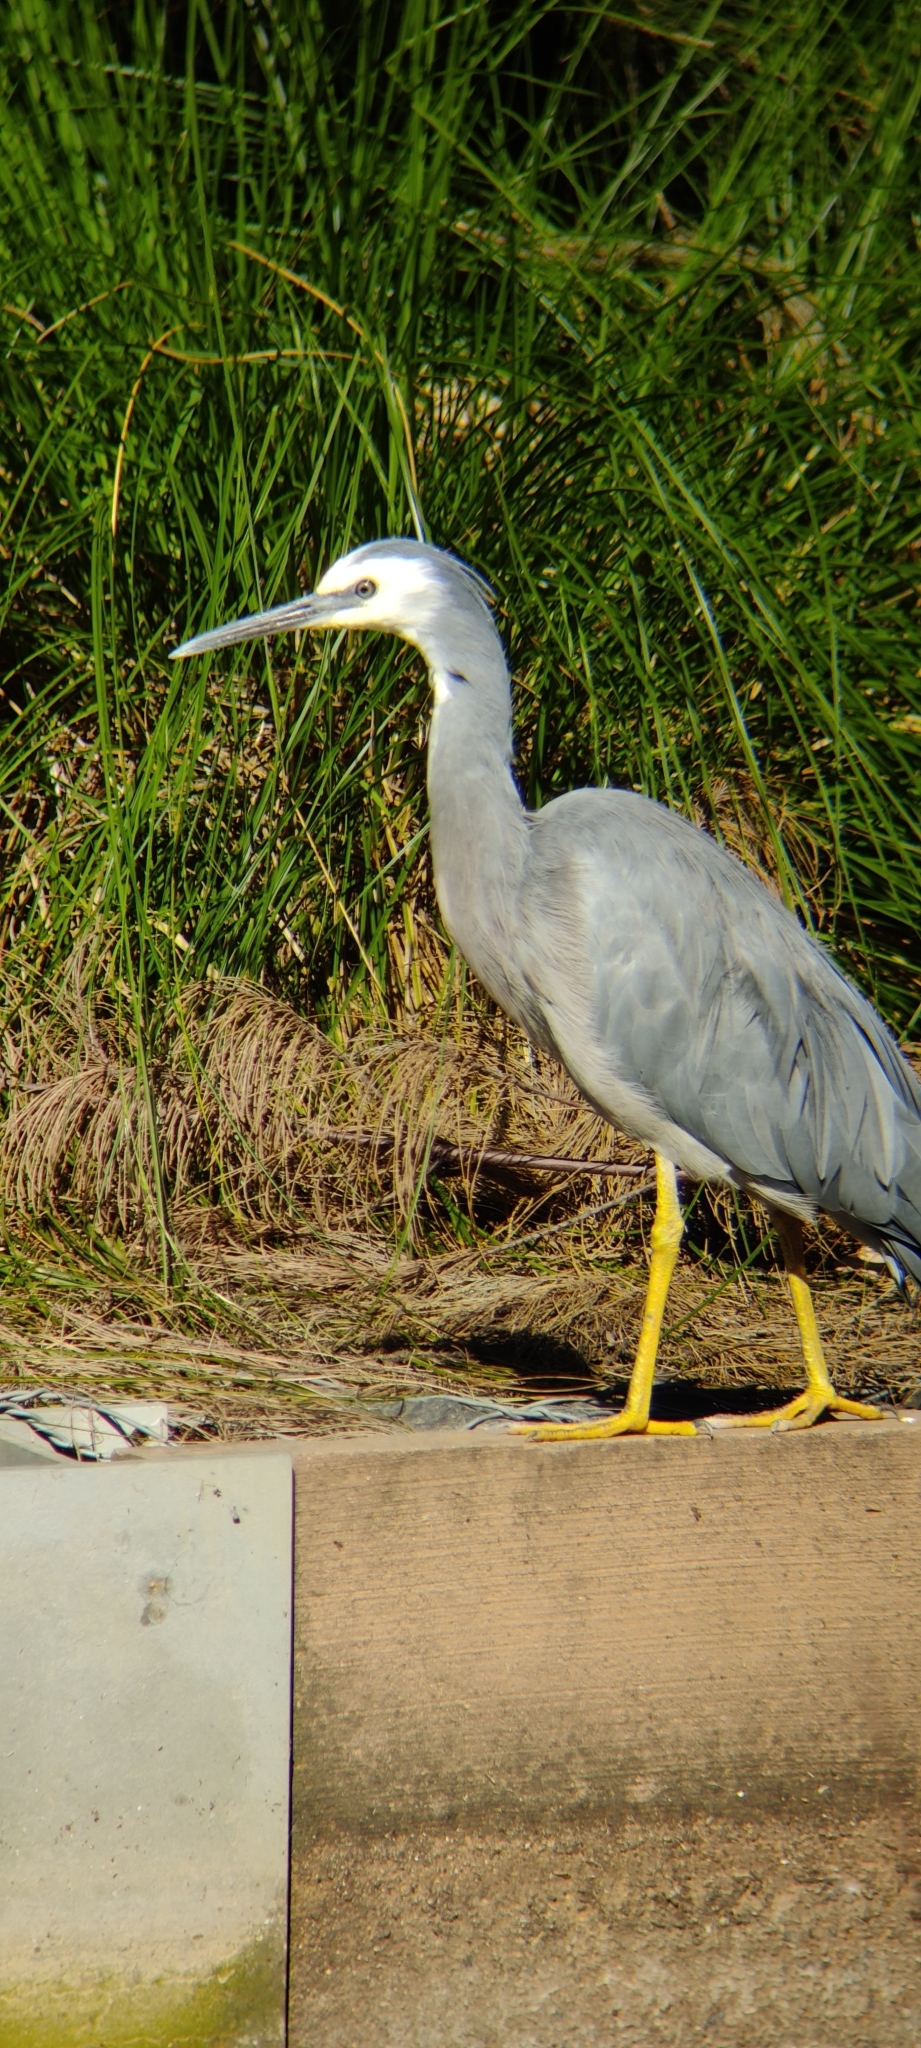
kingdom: Animalia
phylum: Chordata
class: Aves
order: Pelecaniformes
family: Ardeidae
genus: Egretta
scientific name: Egretta novaehollandiae
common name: White-faced heron
